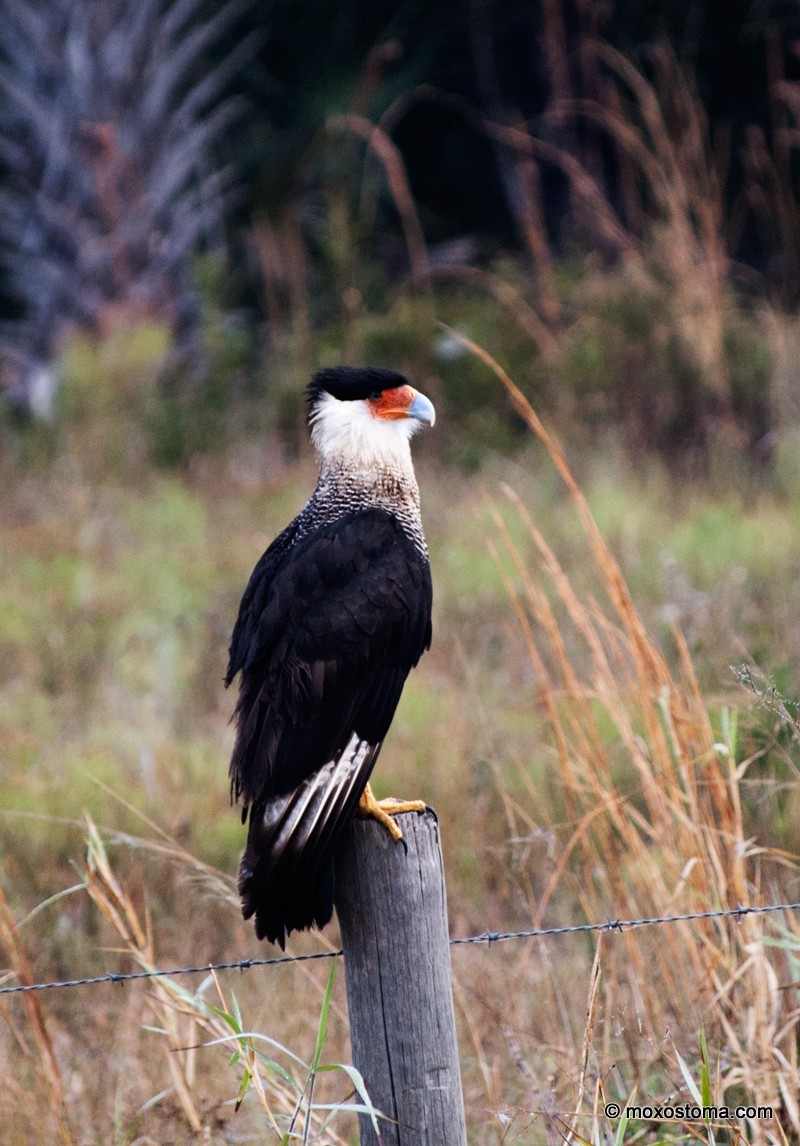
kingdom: Animalia
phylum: Chordata
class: Aves
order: Falconiformes
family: Falconidae
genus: Caracara
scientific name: Caracara plancus
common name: Southern caracara
